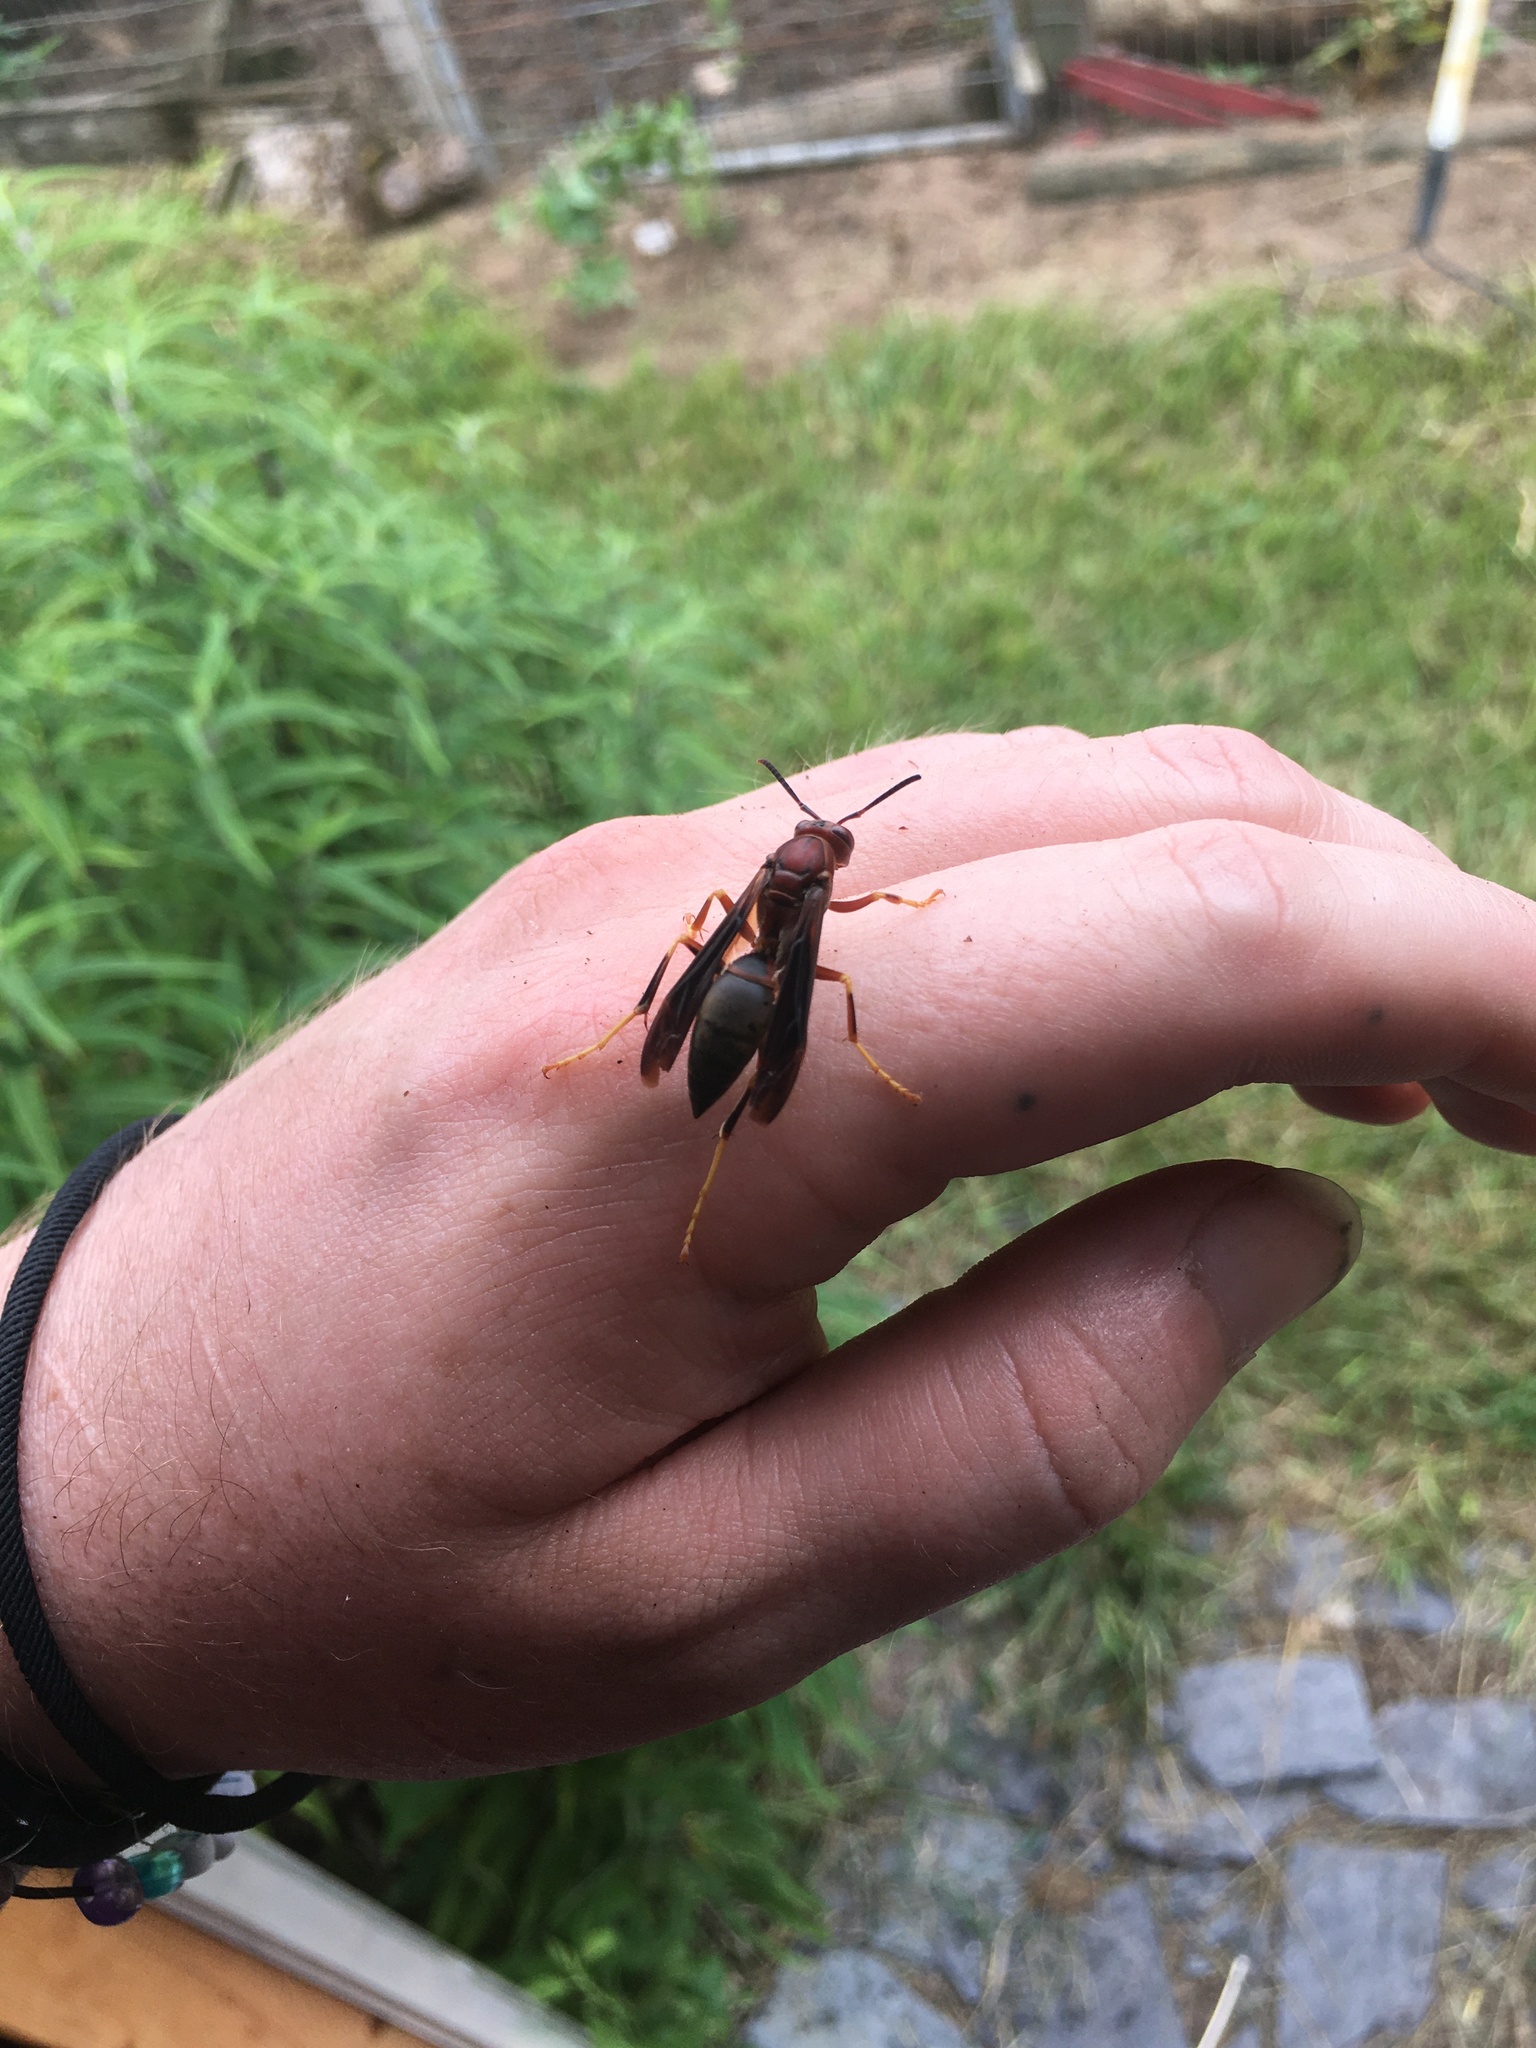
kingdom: Animalia
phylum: Arthropoda
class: Insecta
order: Hymenoptera
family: Eumenidae
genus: Polistes
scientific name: Polistes metricus
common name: Metric paper wasp
